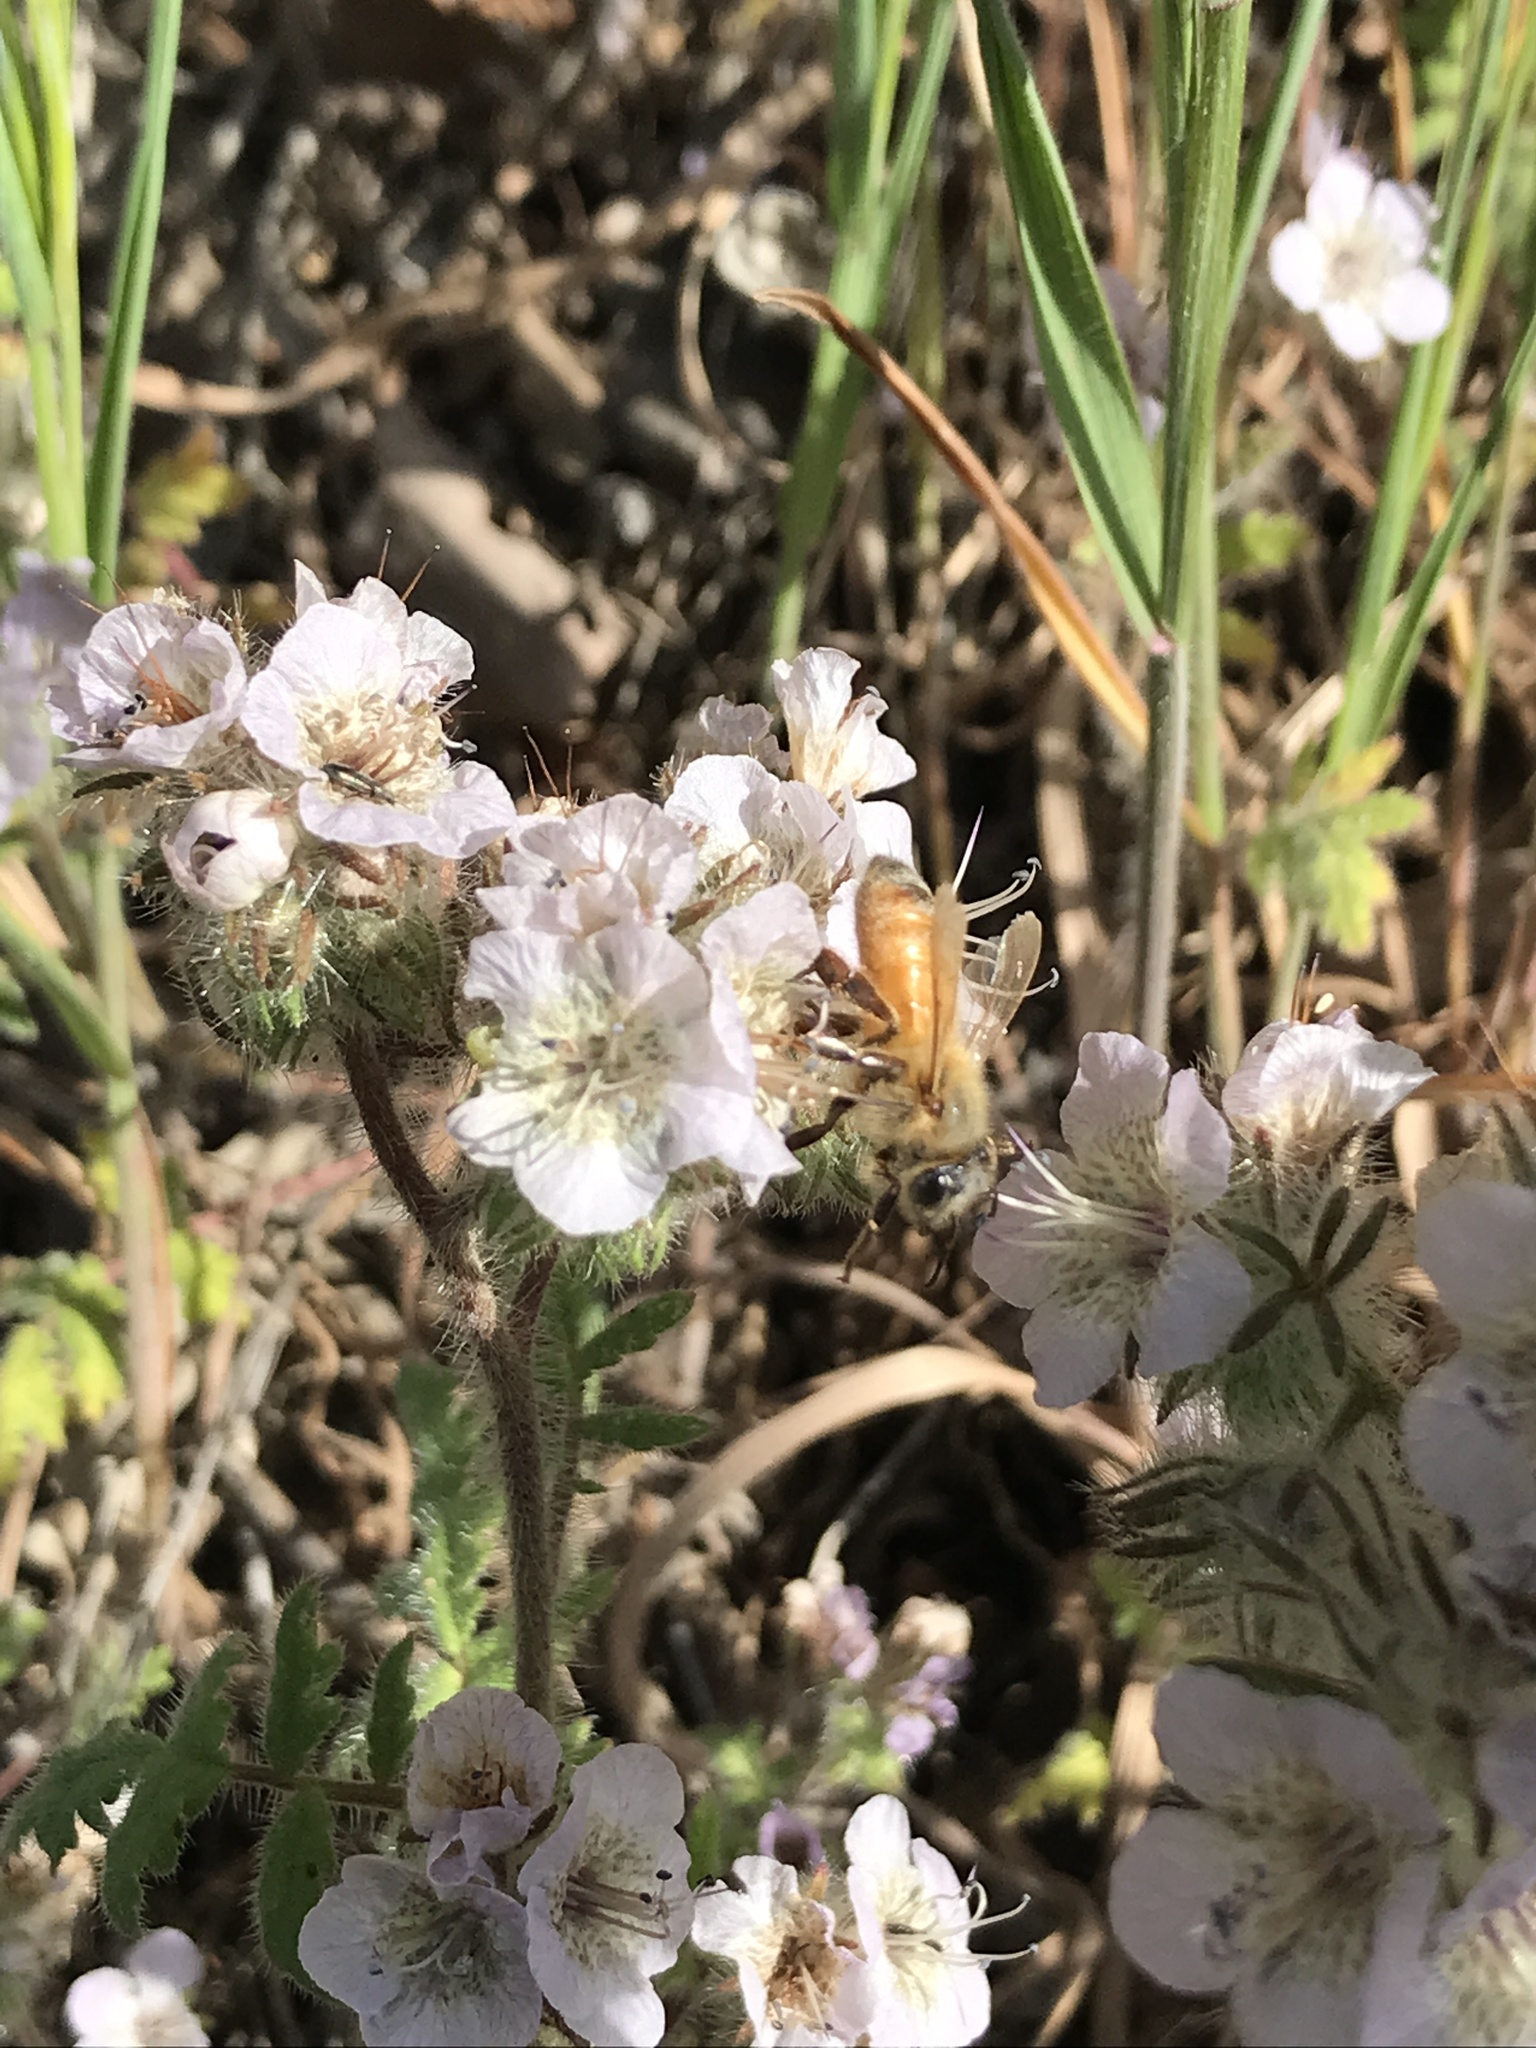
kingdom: Animalia
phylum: Arthropoda
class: Insecta
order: Hymenoptera
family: Apidae
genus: Apis
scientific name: Apis mellifera
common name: Honey bee
